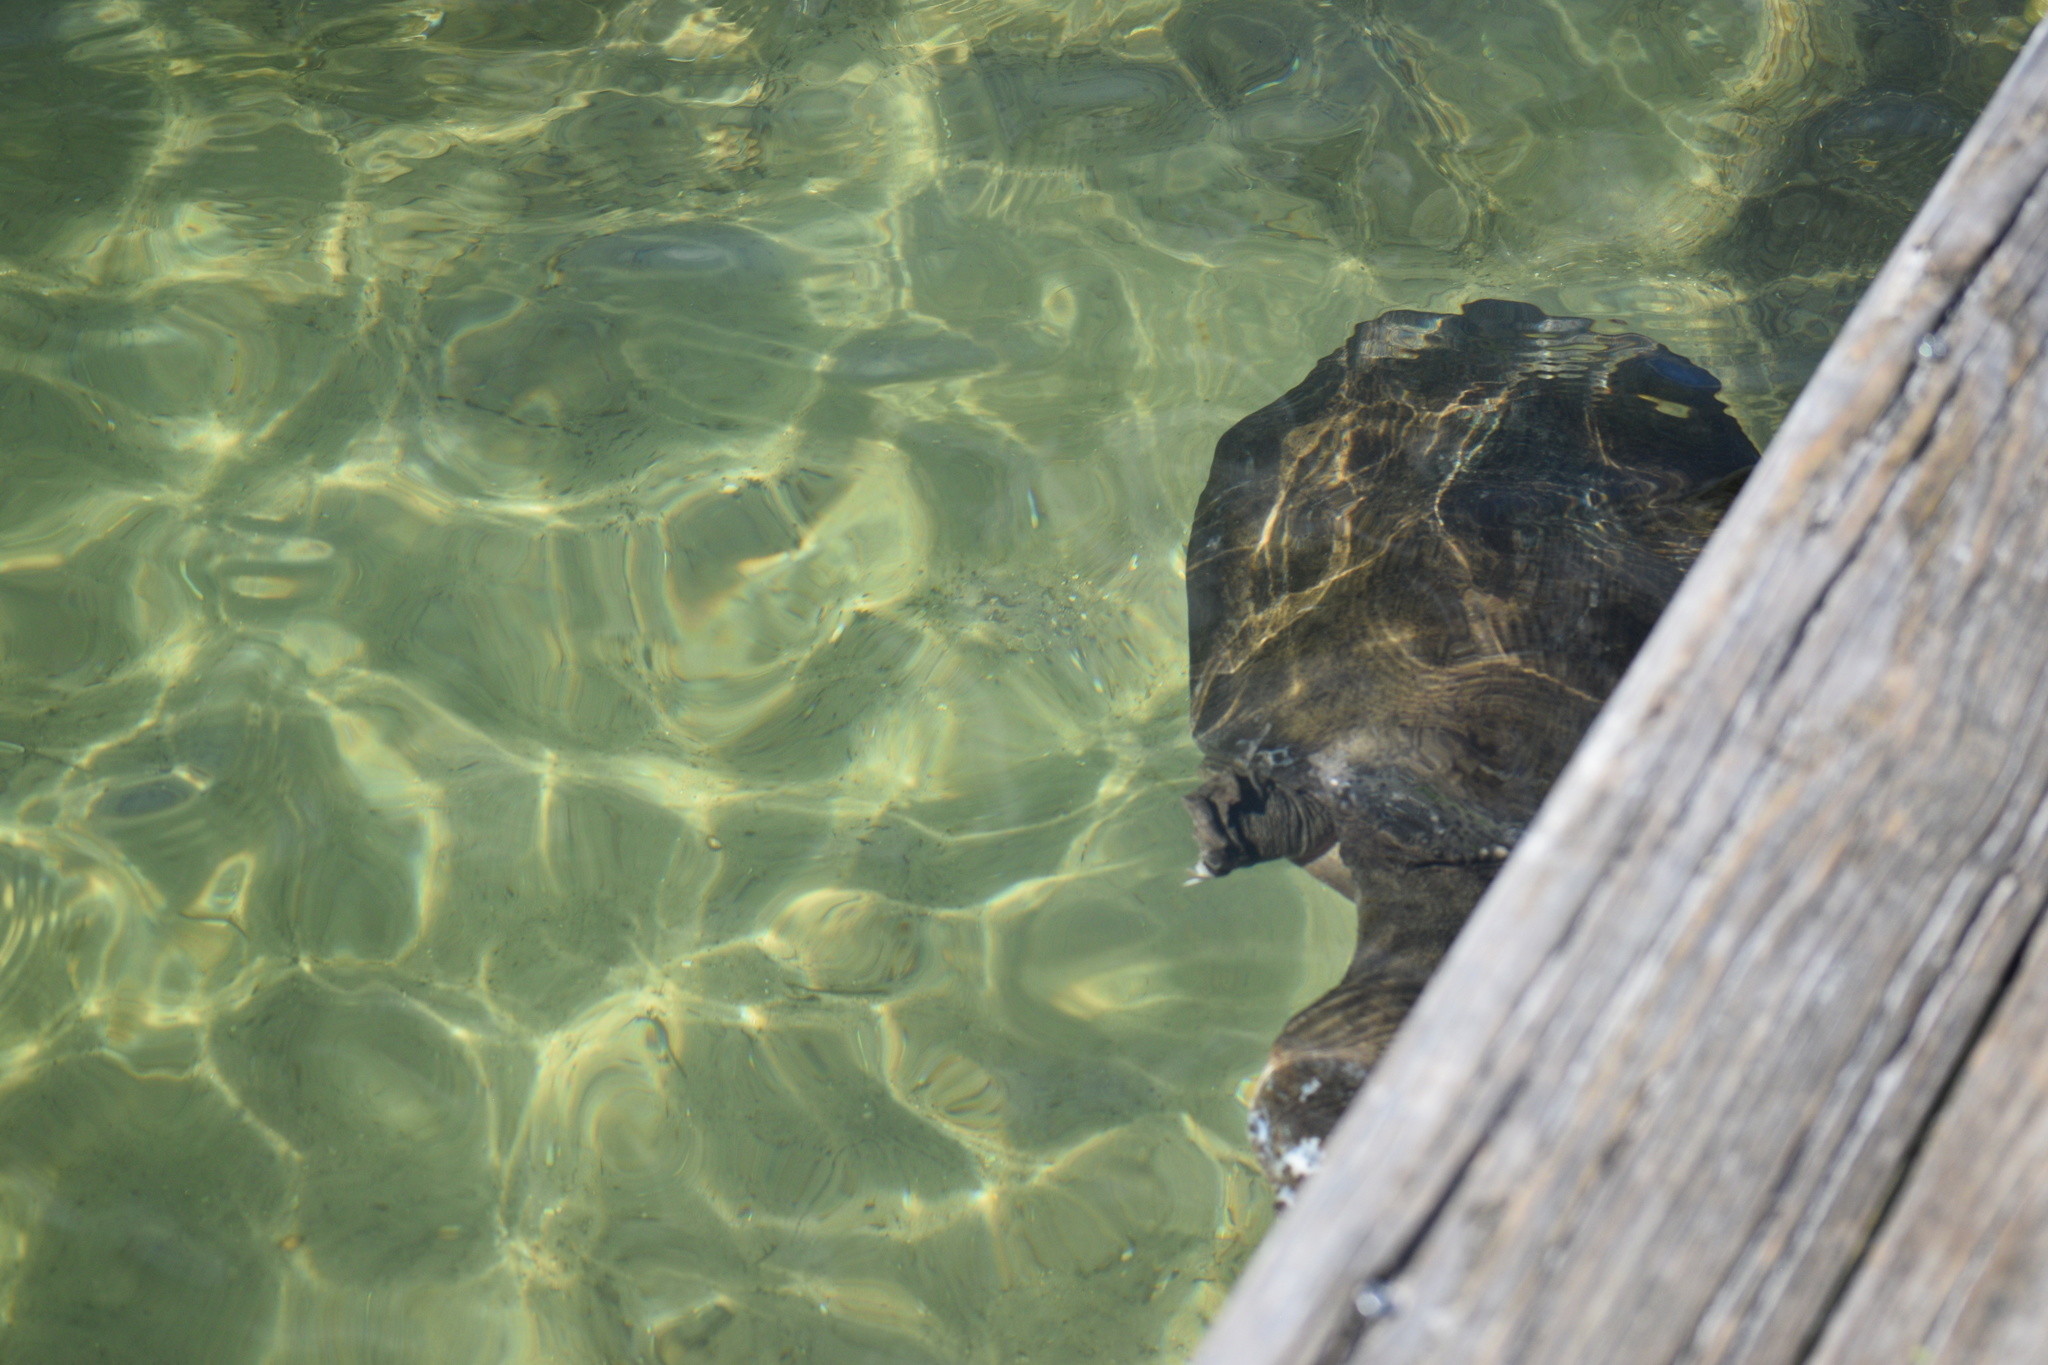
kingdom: Animalia
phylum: Chordata
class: Testudines
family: Trionychidae
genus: Apalone
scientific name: Apalone ferox
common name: Florida softshell turtle
